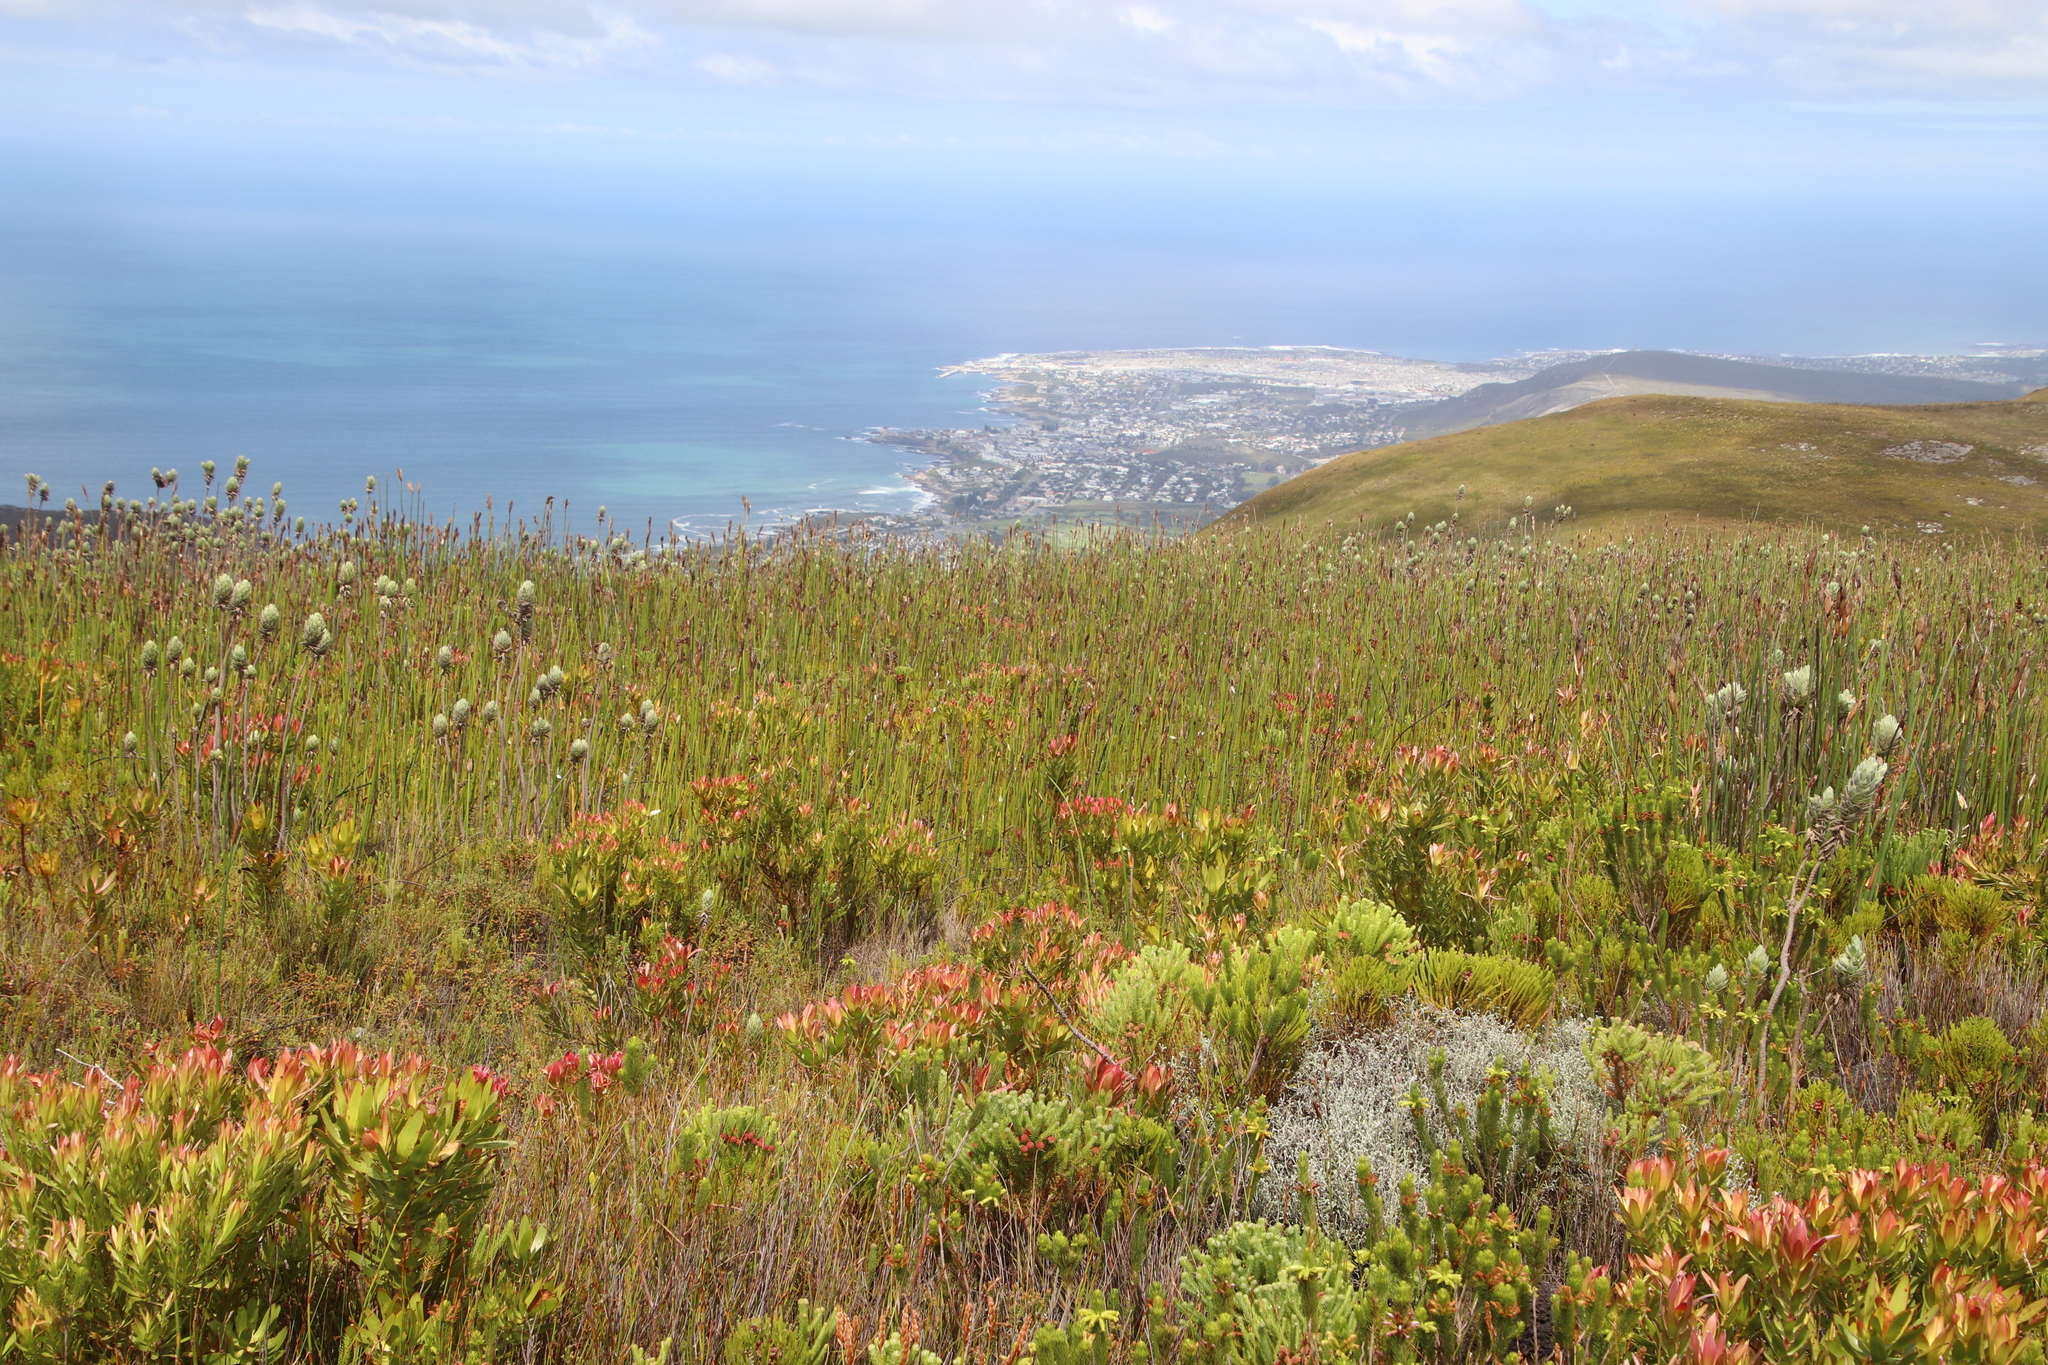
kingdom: Plantae
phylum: Tracheophyta
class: Liliopsida
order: Poales
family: Restionaceae
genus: Elegia
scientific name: Elegia mucronata
